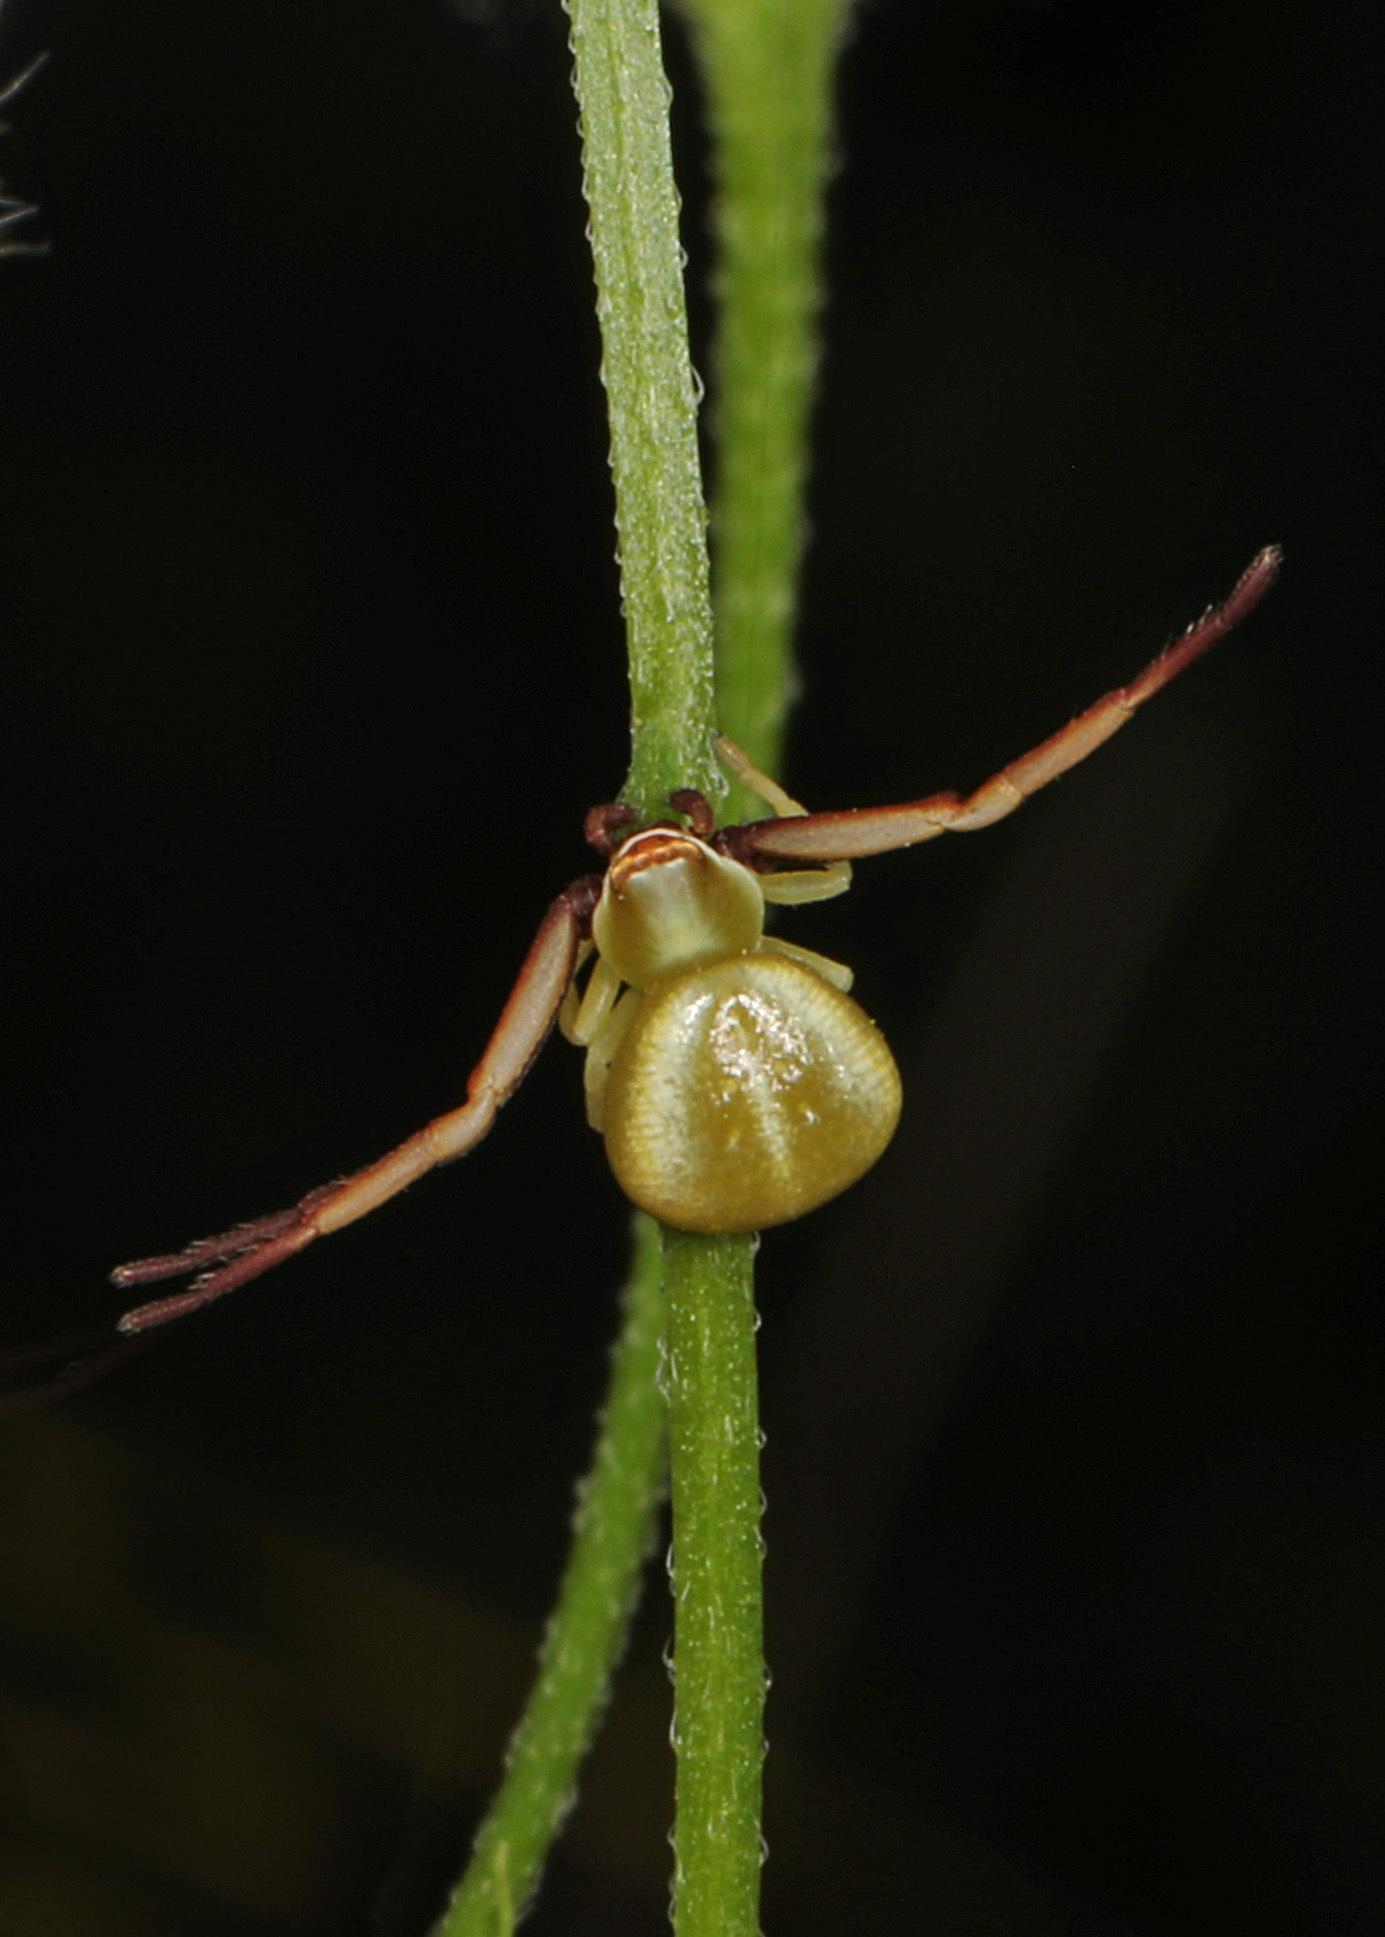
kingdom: Animalia
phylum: Arthropoda
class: Arachnida
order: Araneae
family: Thomisidae
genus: Misumenoides
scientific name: Misumenoides formosipes
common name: White-banded crab spider
